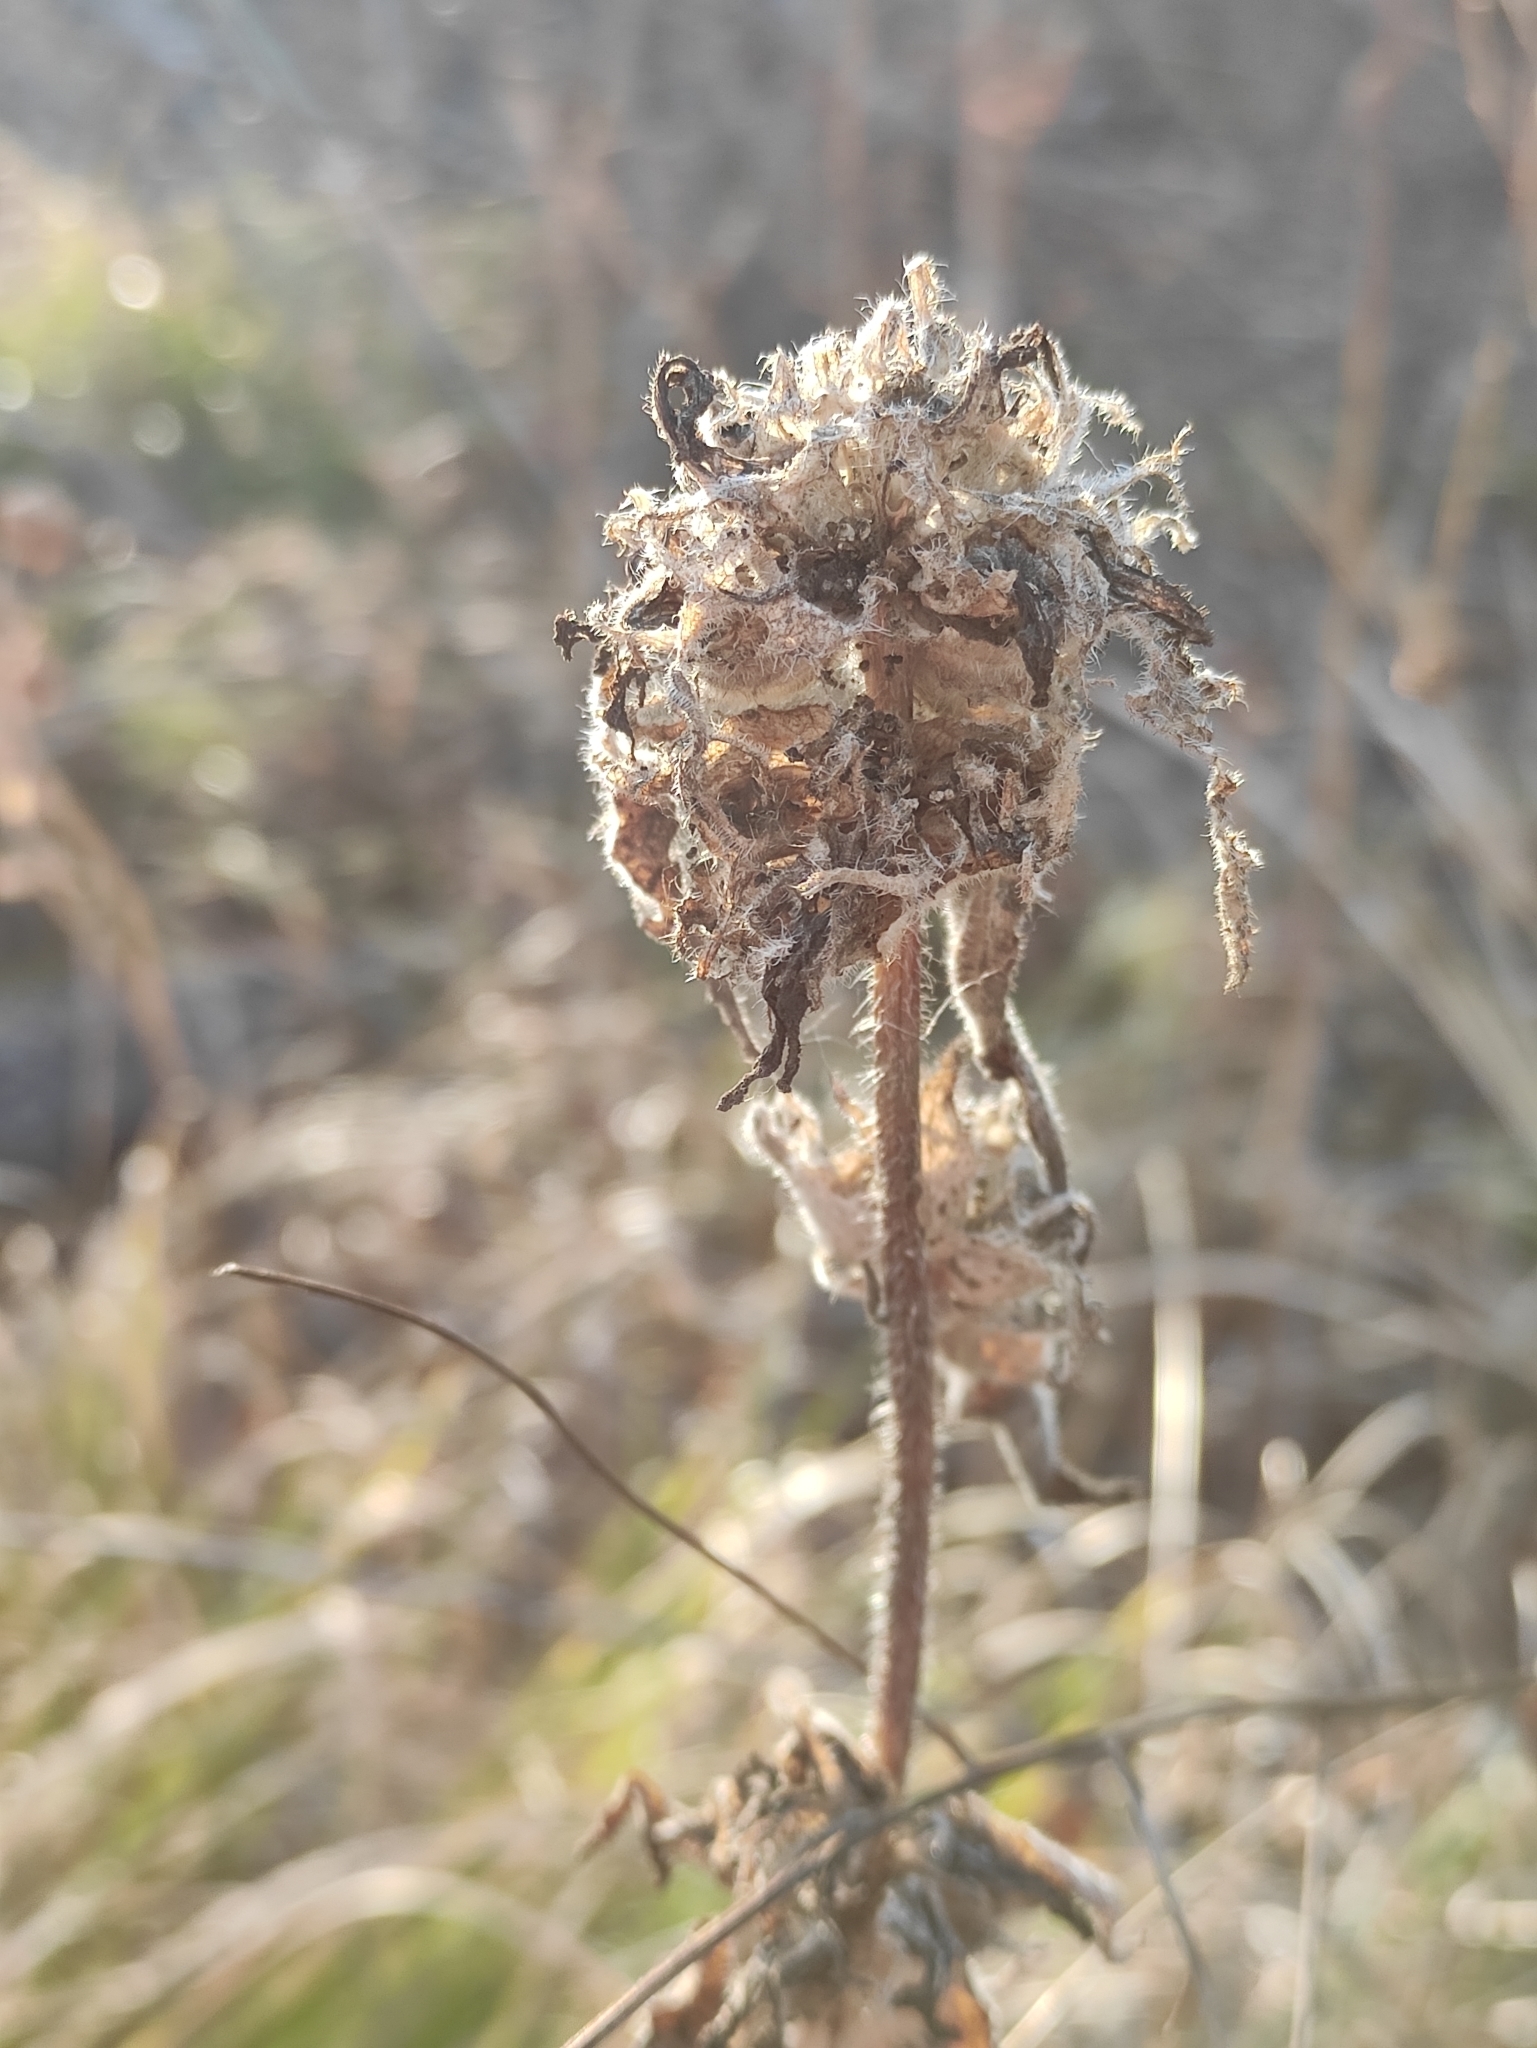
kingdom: Plantae
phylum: Tracheophyta
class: Magnoliopsida
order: Asterales
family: Campanulaceae
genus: Campanula
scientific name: Campanula glomerata
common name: Clustered bellflower
